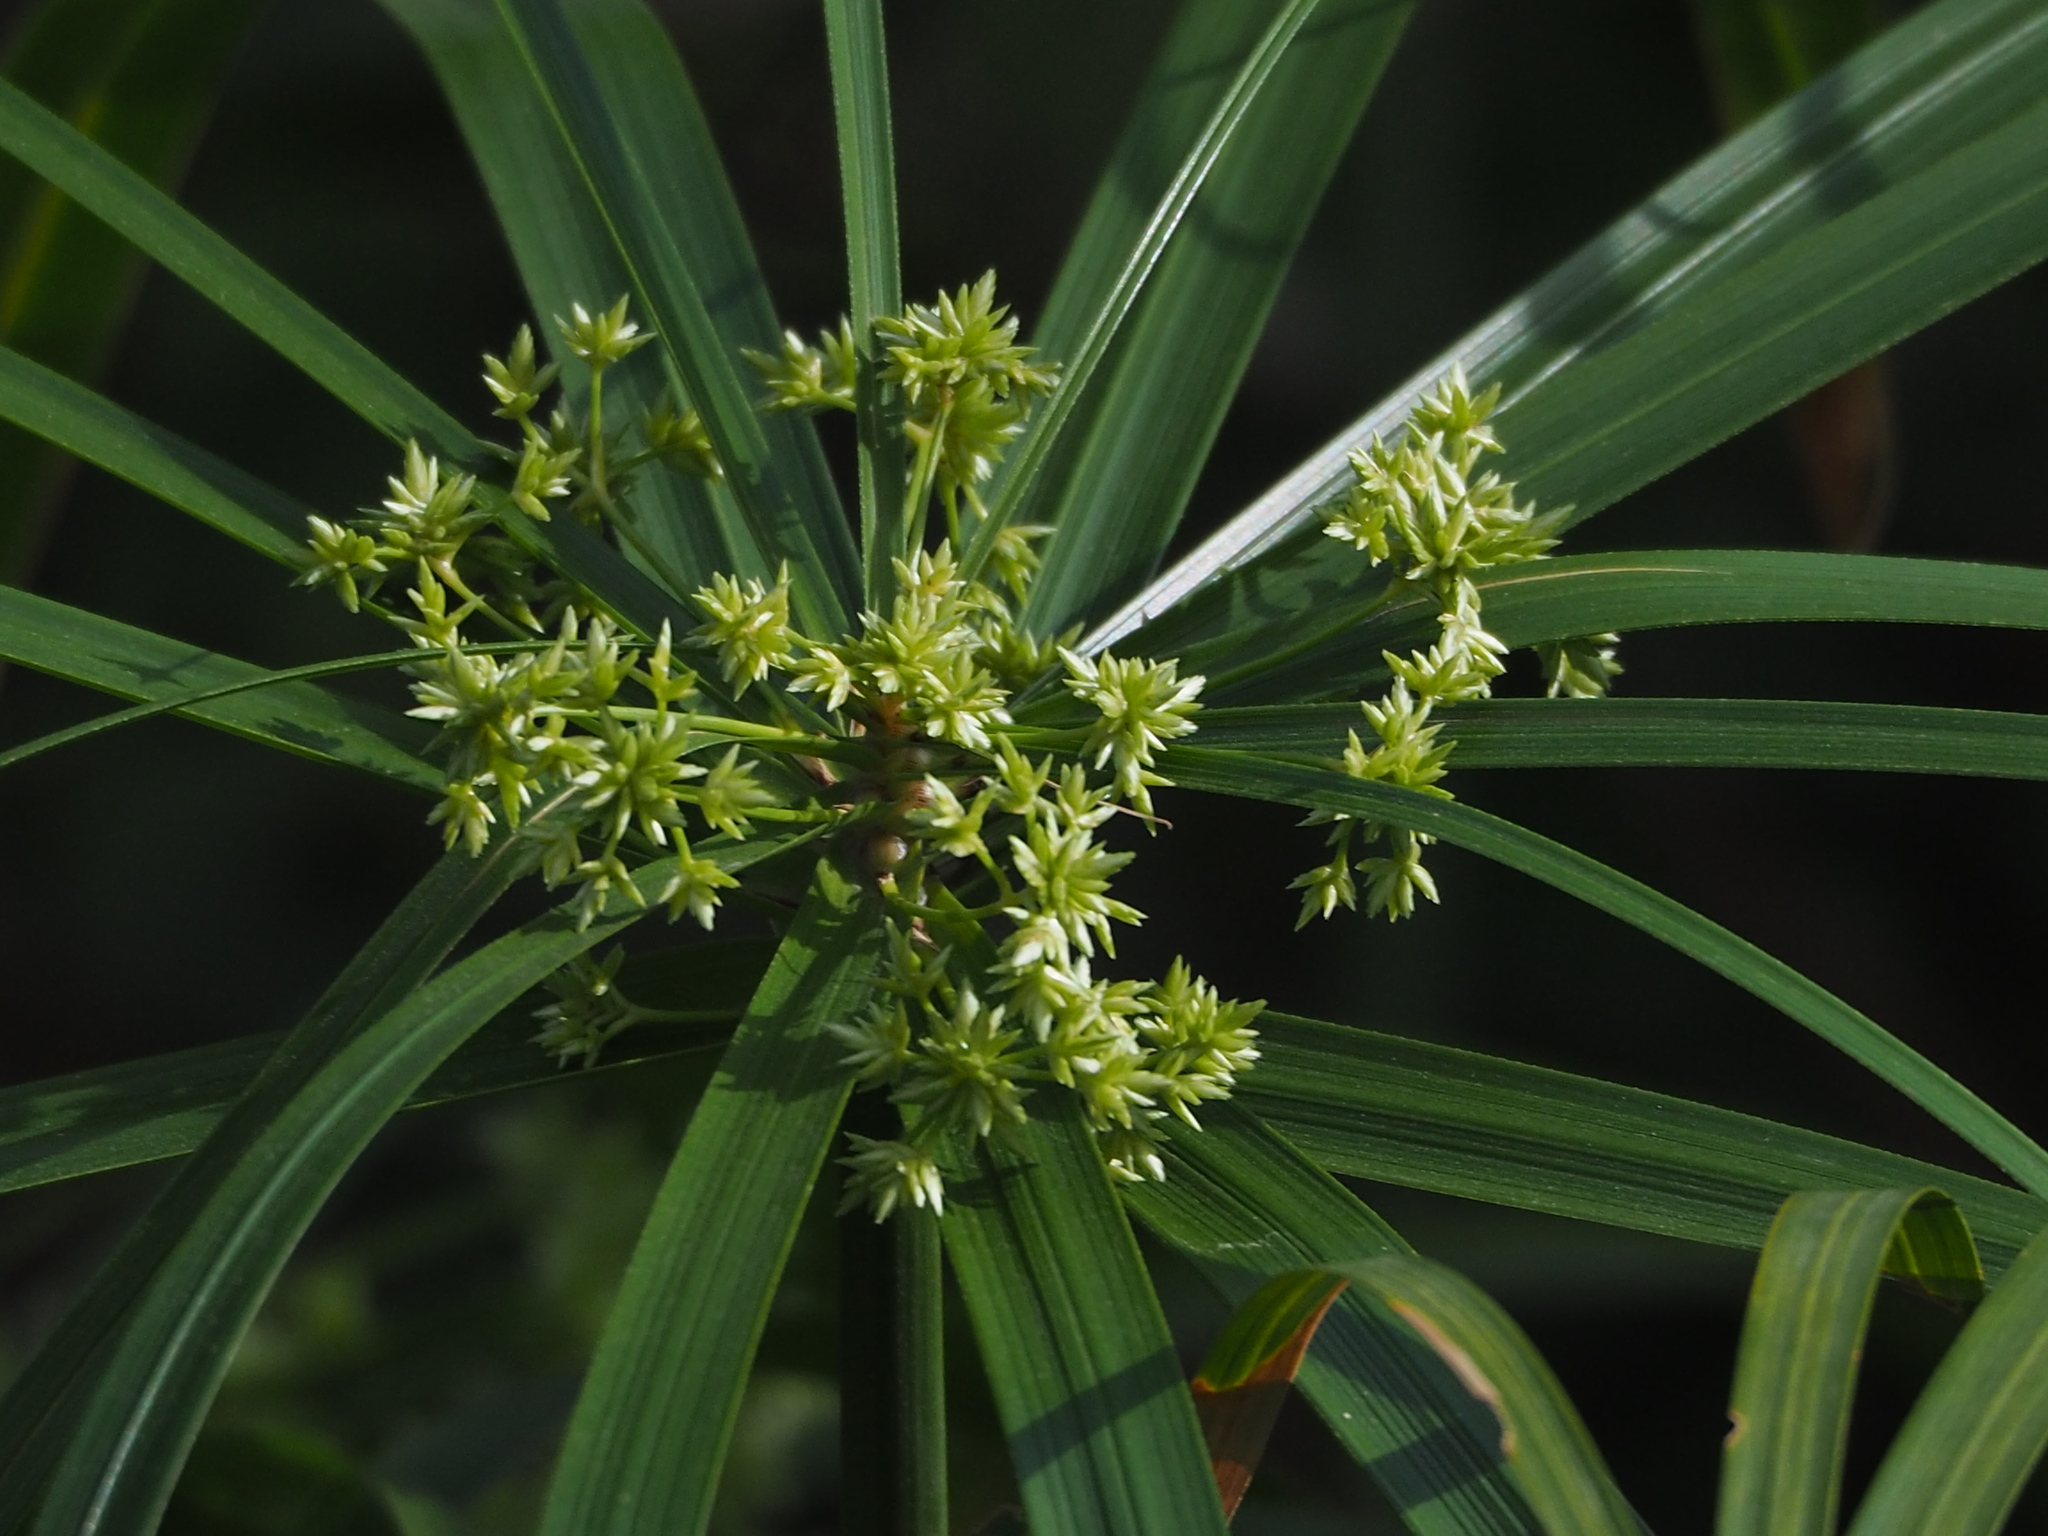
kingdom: Plantae
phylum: Tracheophyta
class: Liliopsida
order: Poales
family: Cyperaceae
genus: Cyperus
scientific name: Cyperus alternifolius
